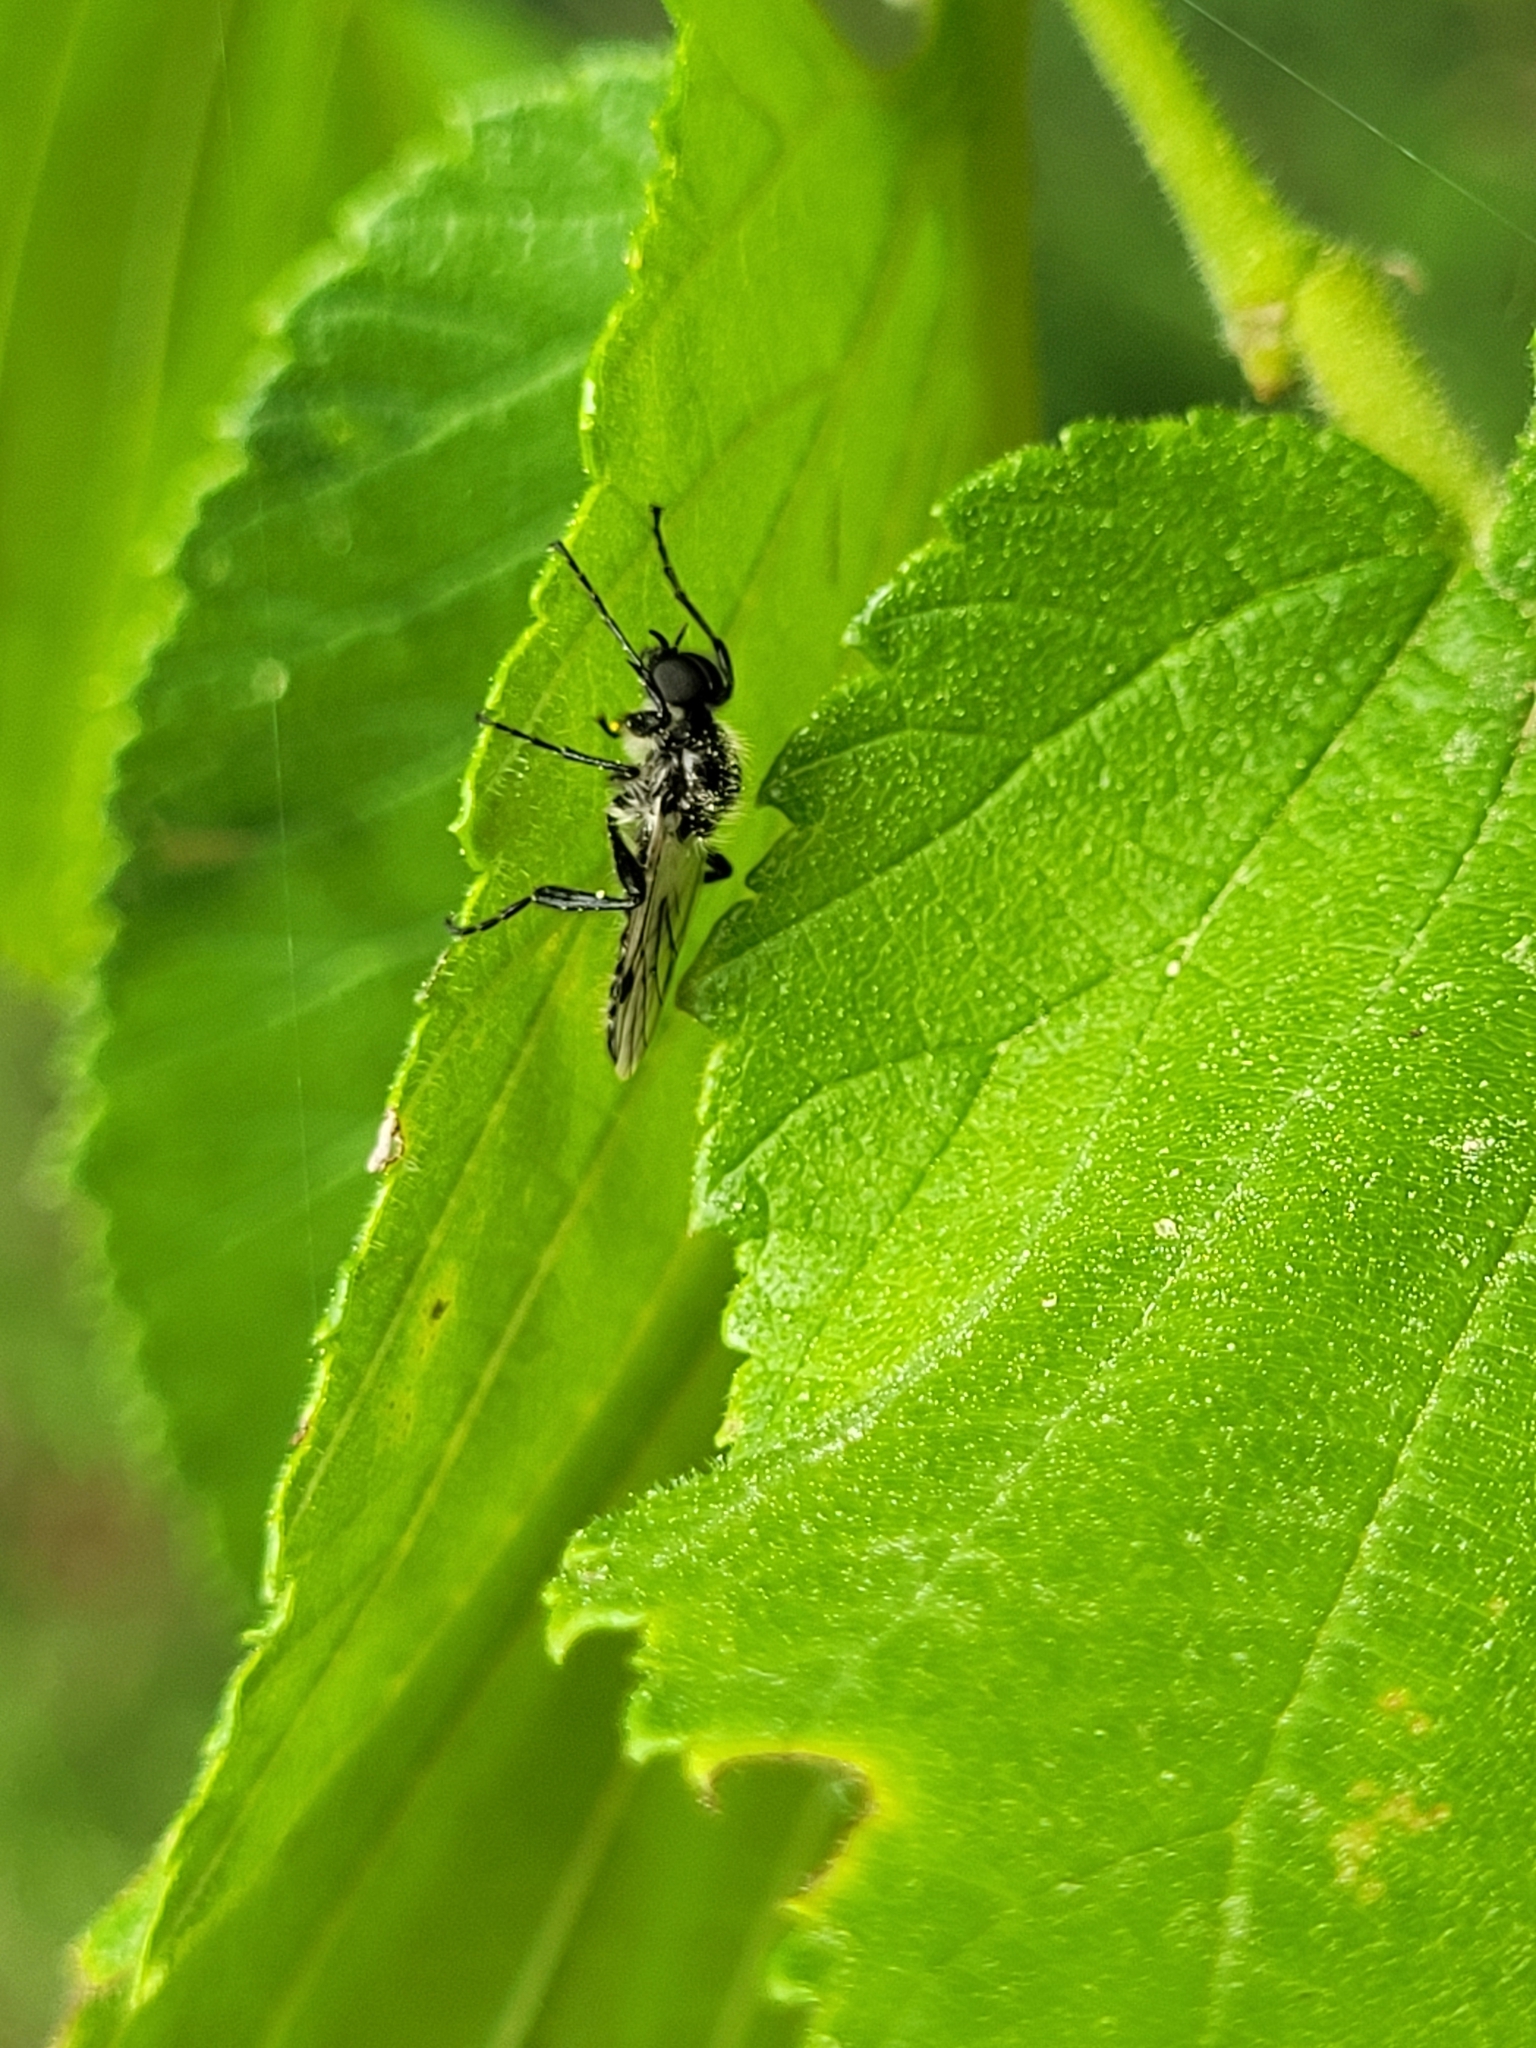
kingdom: Animalia
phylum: Arthropoda
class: Insecta
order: Diptera
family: Bibionidae
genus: Bibio
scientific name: Bibio albipennis
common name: White-winged march fly
